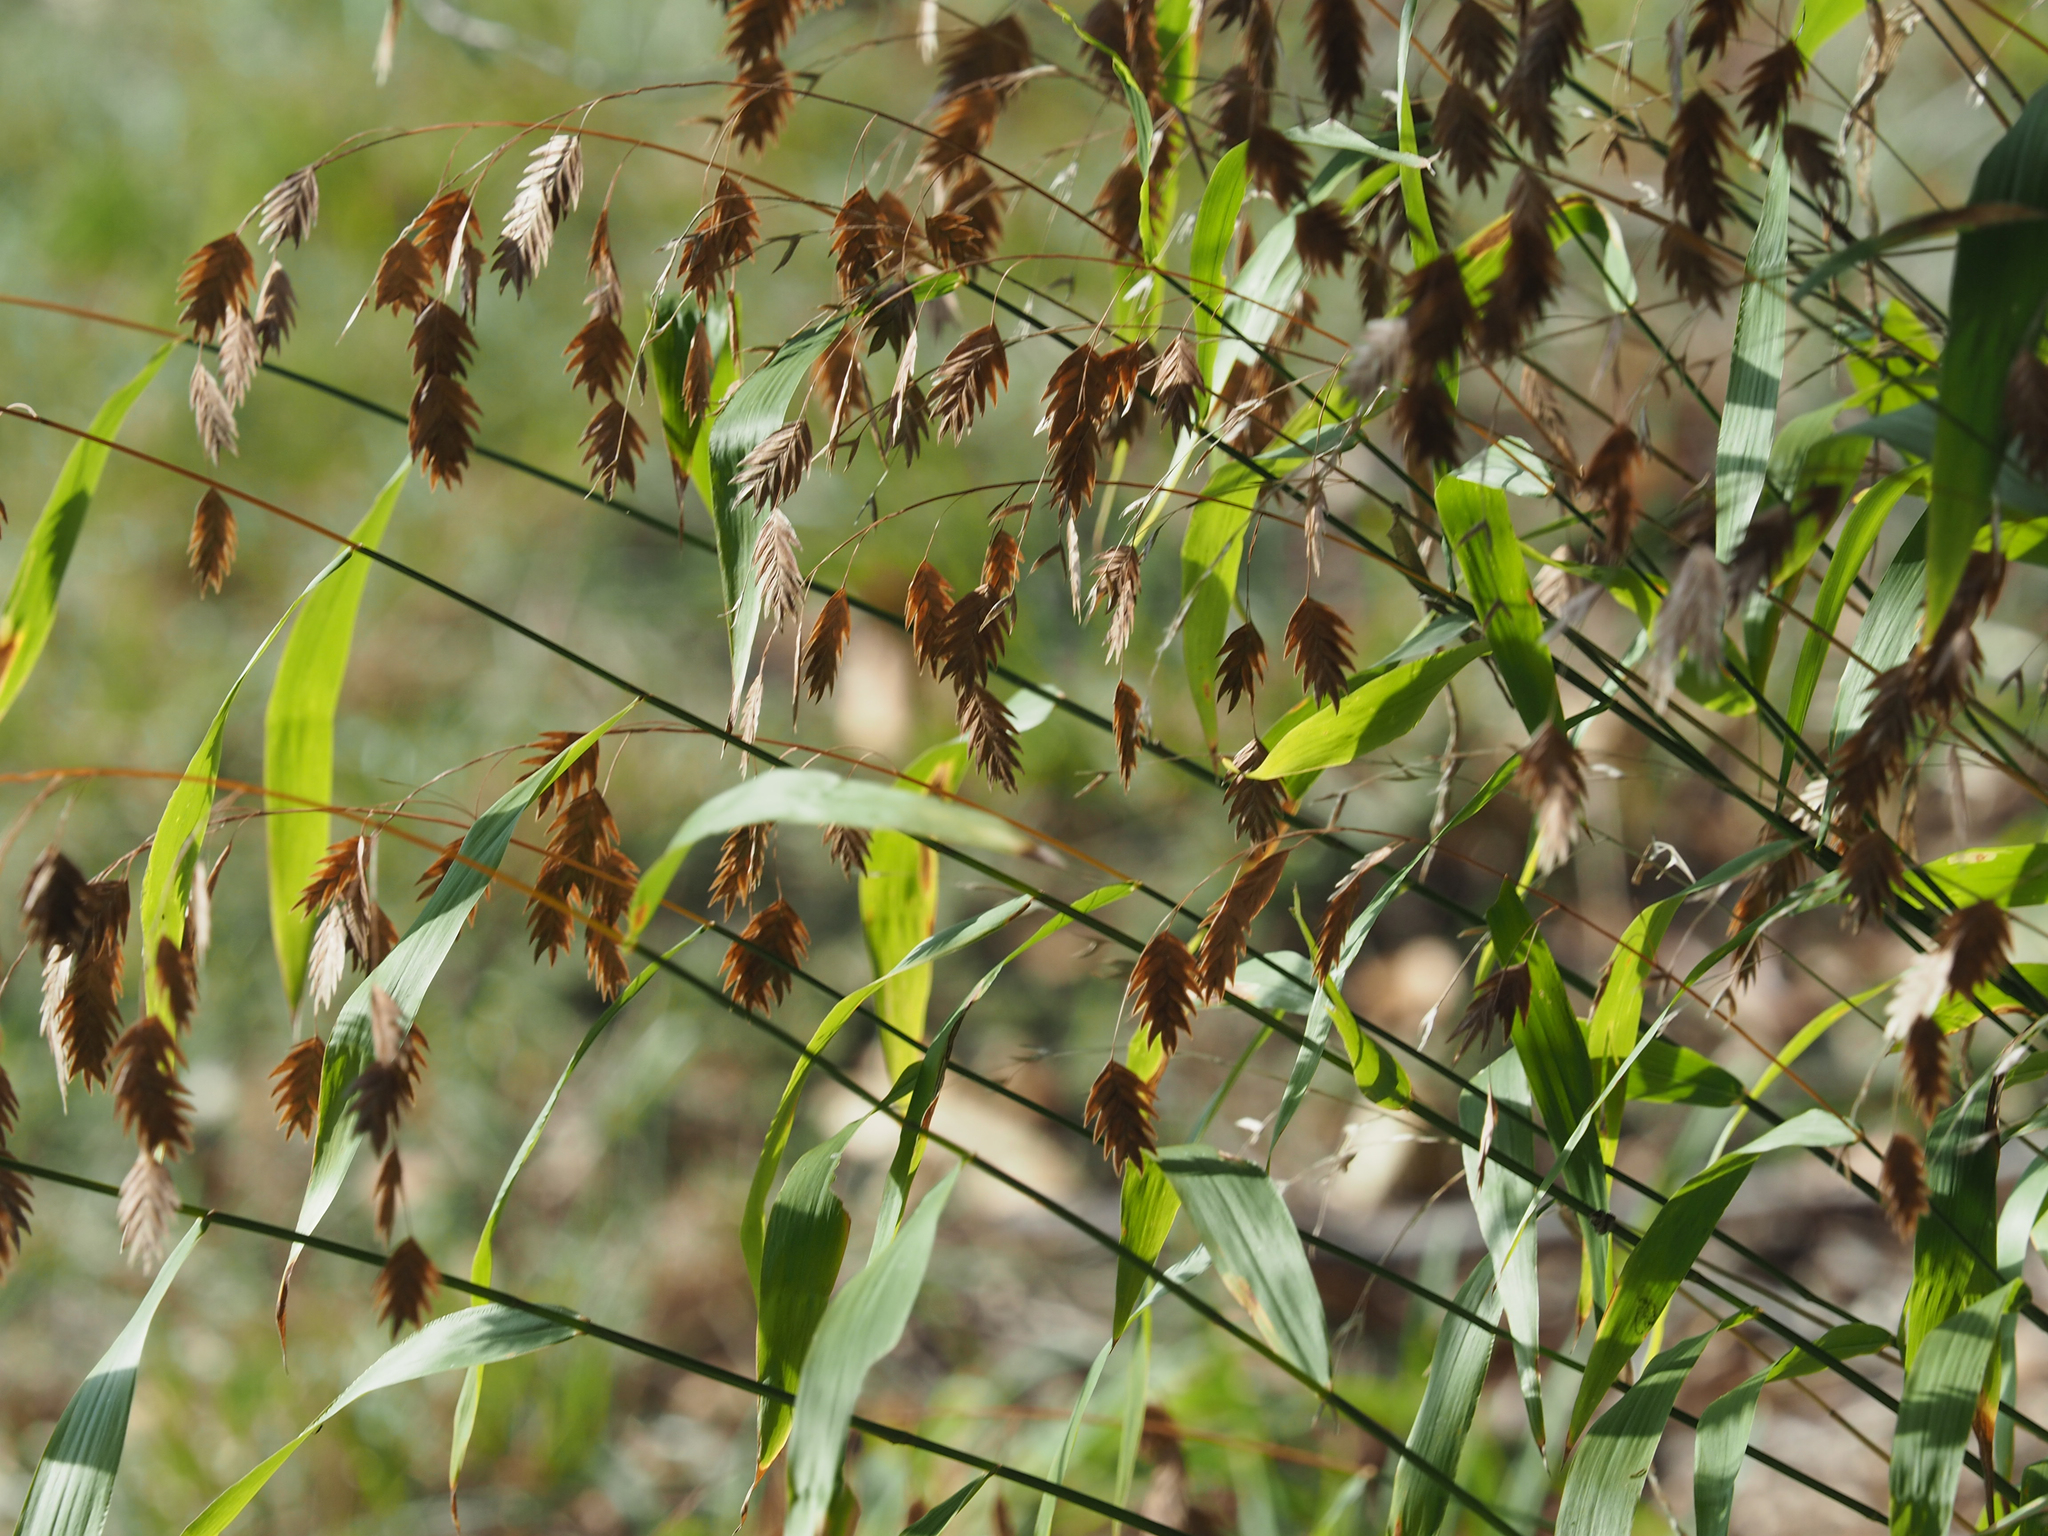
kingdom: Plantae
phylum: Tracheophyta
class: Liliopsida
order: Poales
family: Poaceae
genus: Chasmanthium
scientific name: Chasmanthium latifolium
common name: Broad-leaved chasmanthium
